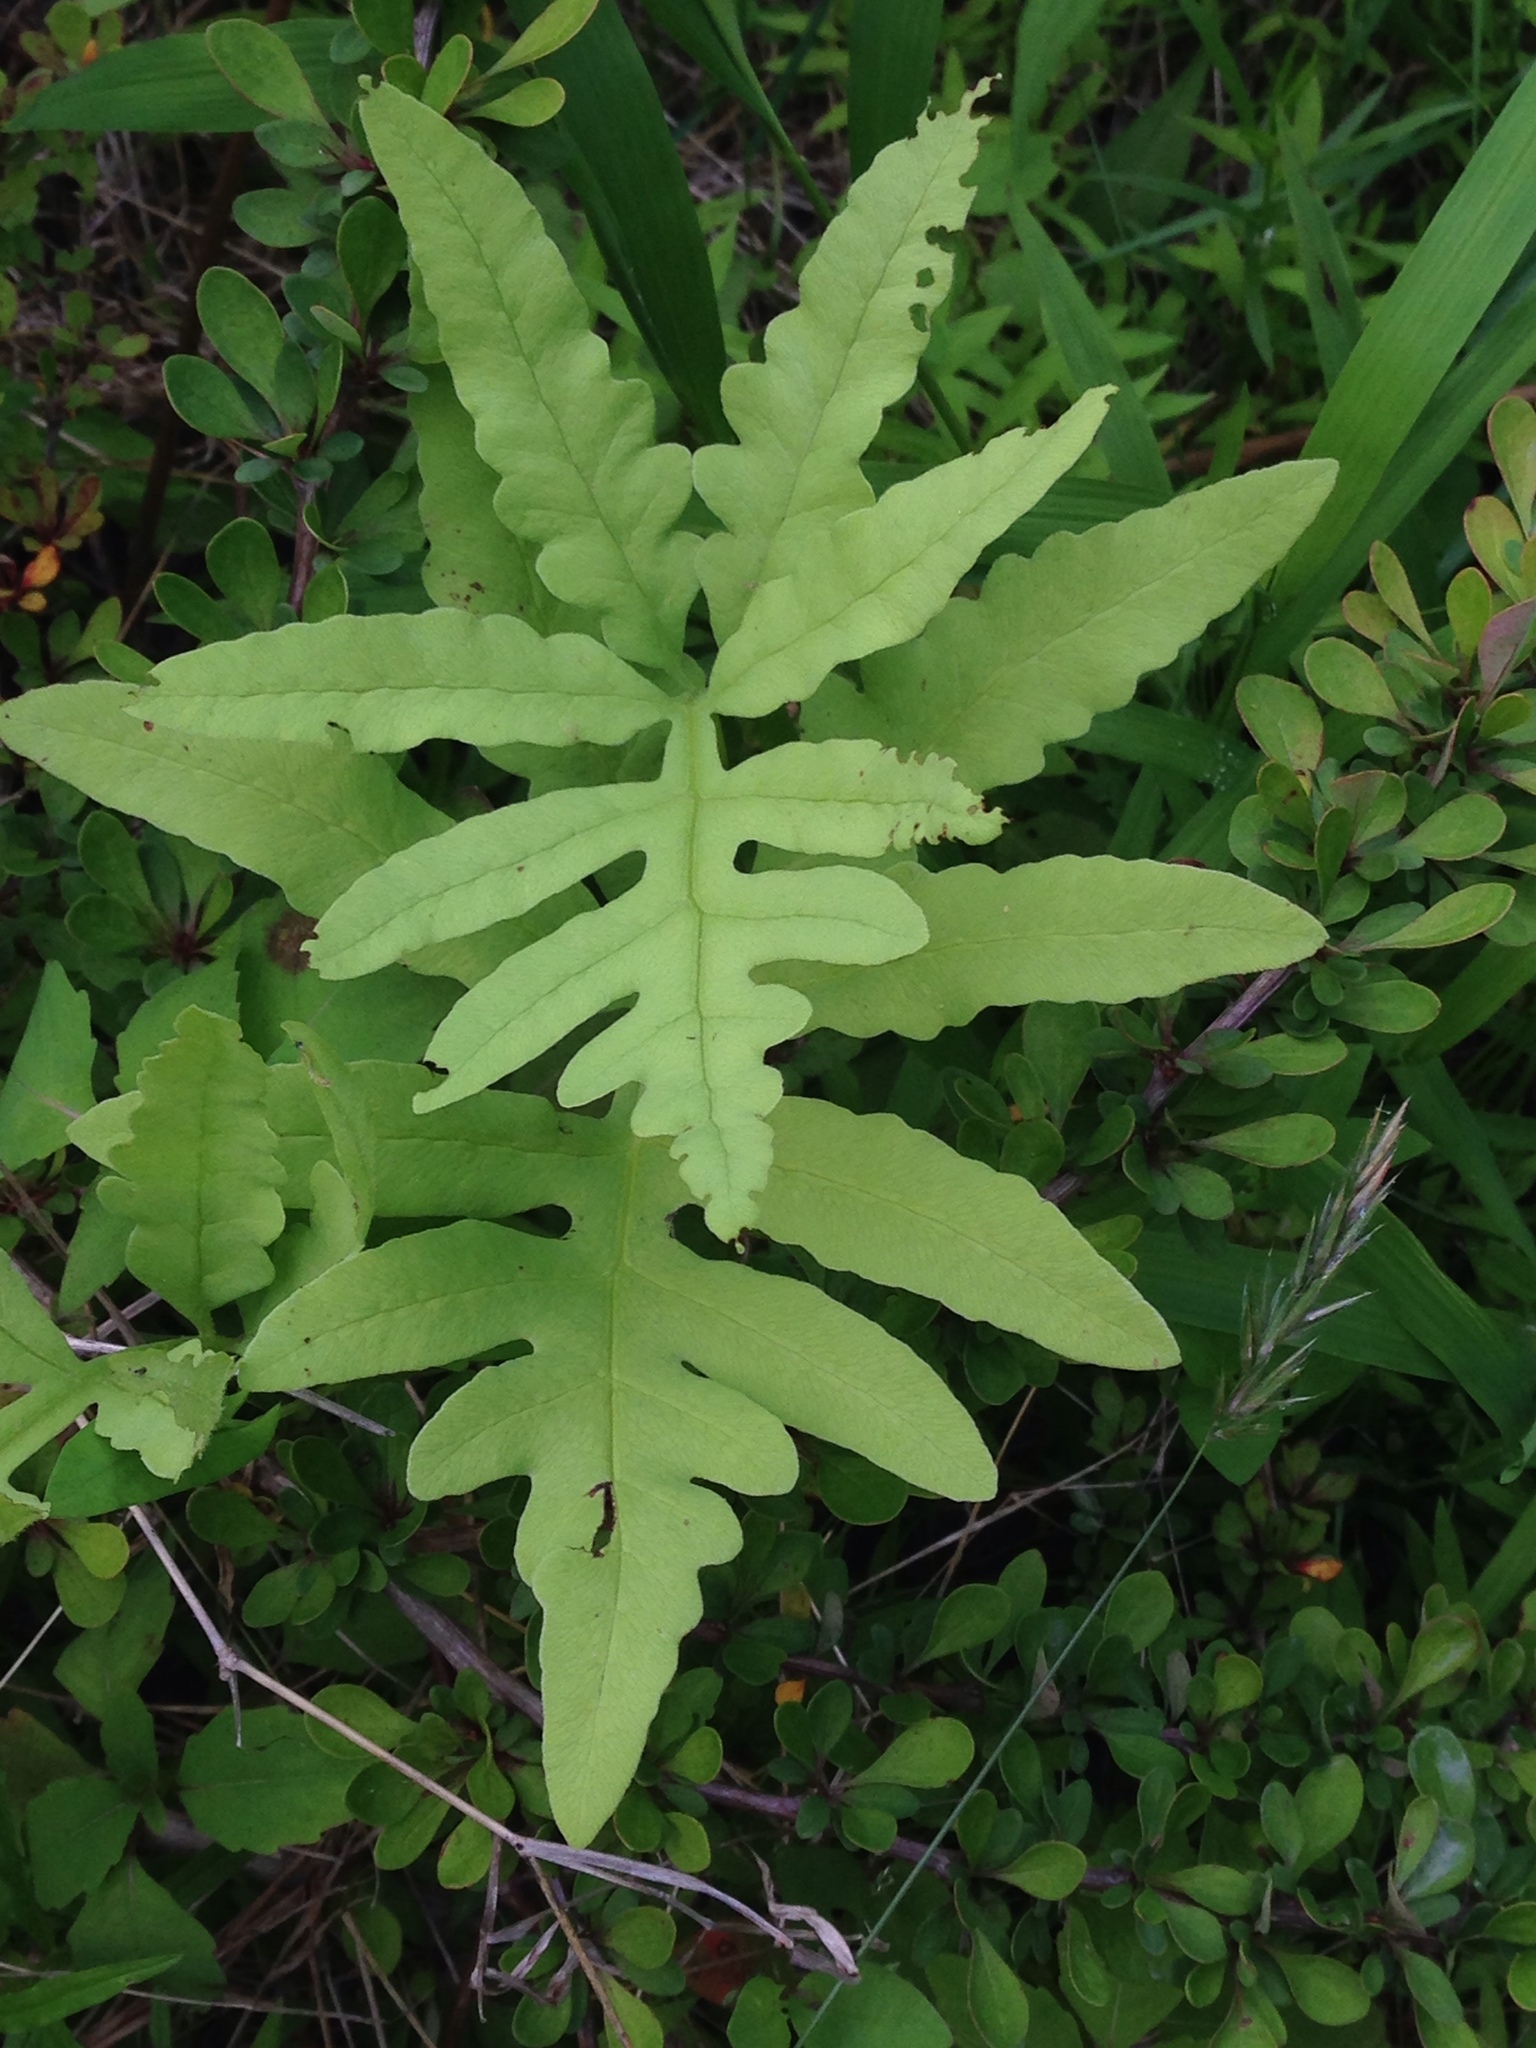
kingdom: Plantae
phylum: Tracheophyta
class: Polypodiopsida
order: Polypodiales
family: Onocleaceae
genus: Onoclea
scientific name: Onoclea sensibilis
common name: Sensitive fern
